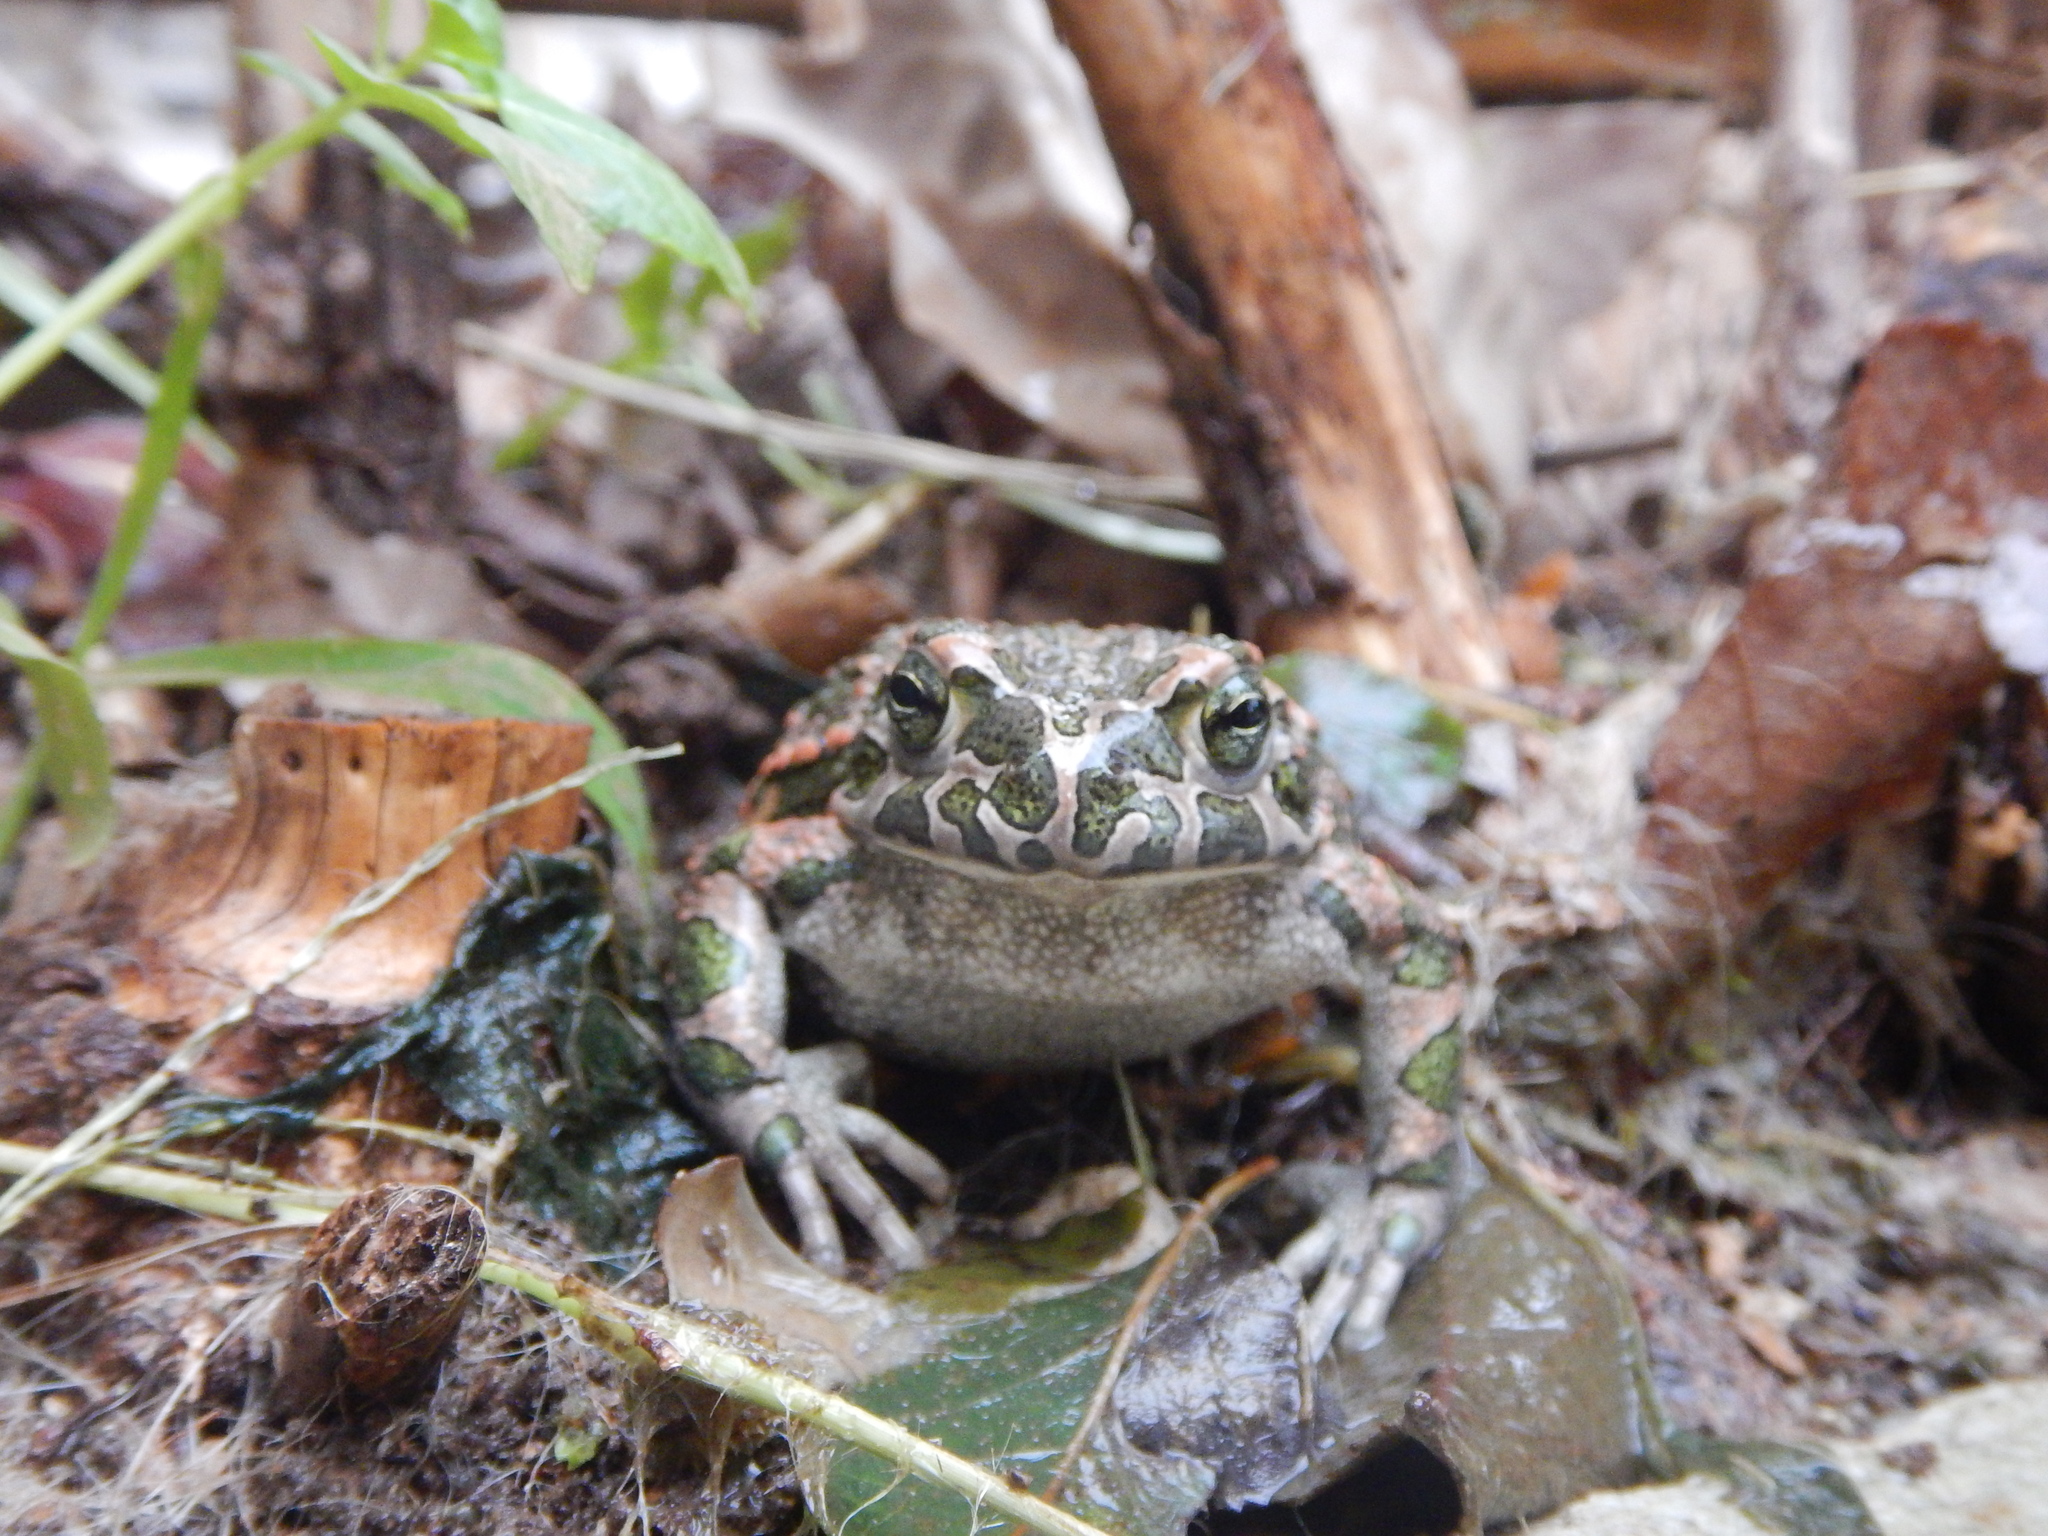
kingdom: Animalia
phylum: Chordata
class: Amphibia
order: Anura
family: Bufonidae
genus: Bufotes
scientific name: Bufotes viridis
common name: European green toad
